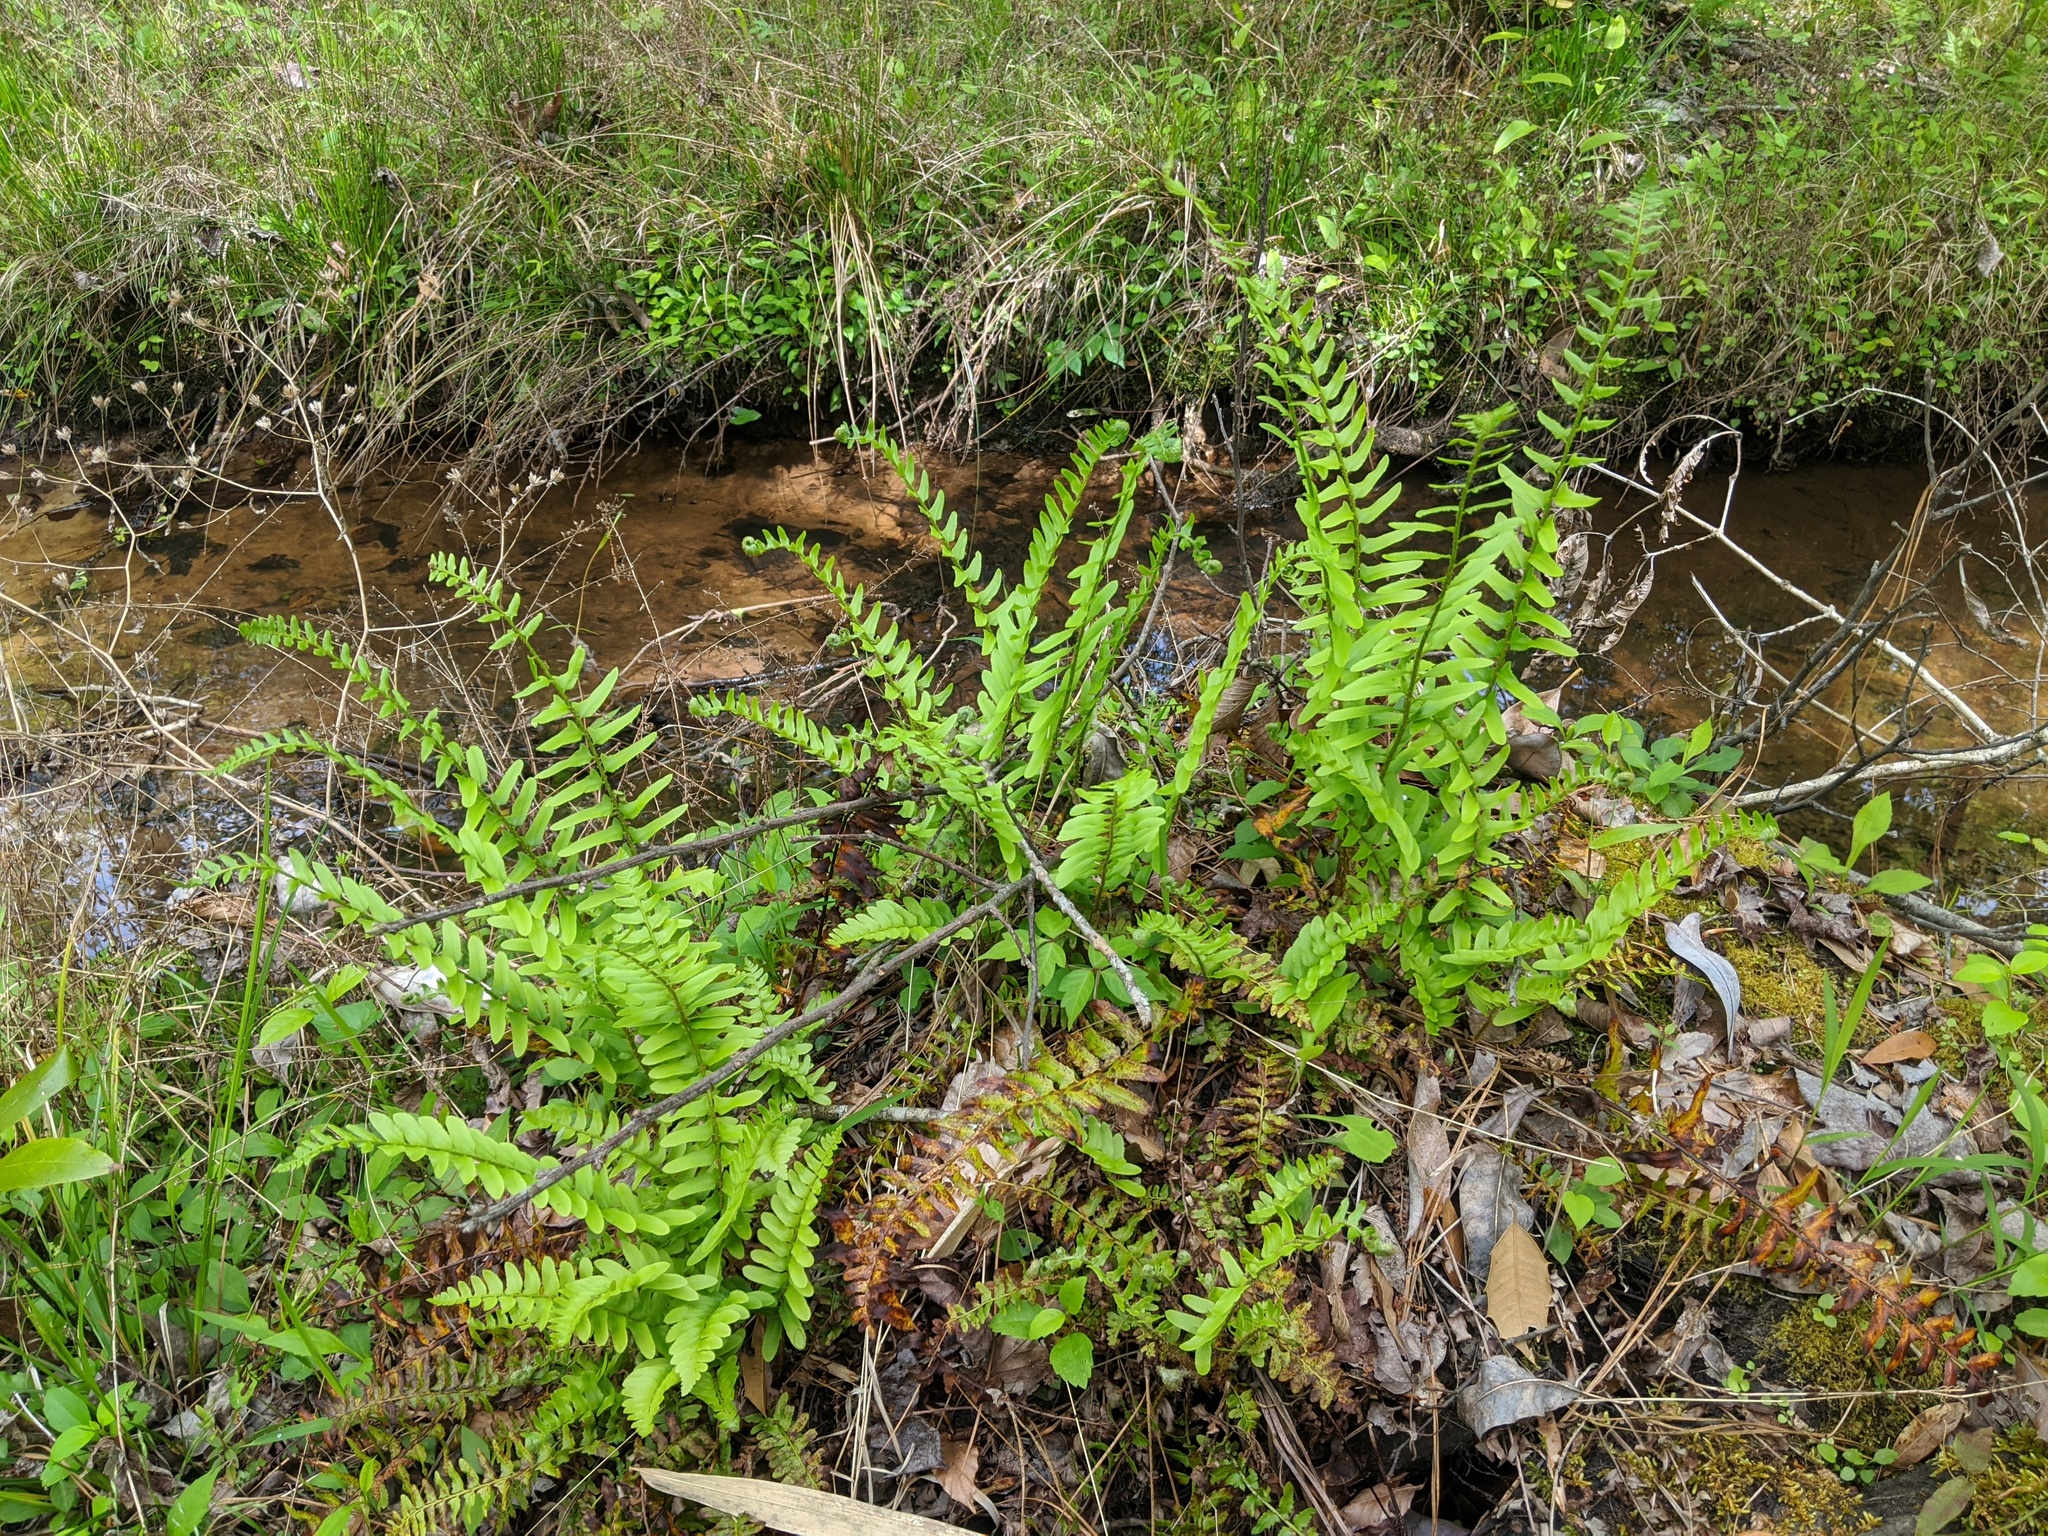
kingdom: Plantae
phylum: Tracheophyta
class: Polypodiopsida
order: Polypodiales
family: Dryopteridaceae
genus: Polystichum
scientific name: Polystichum acrostichoides
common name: Christmas fern
